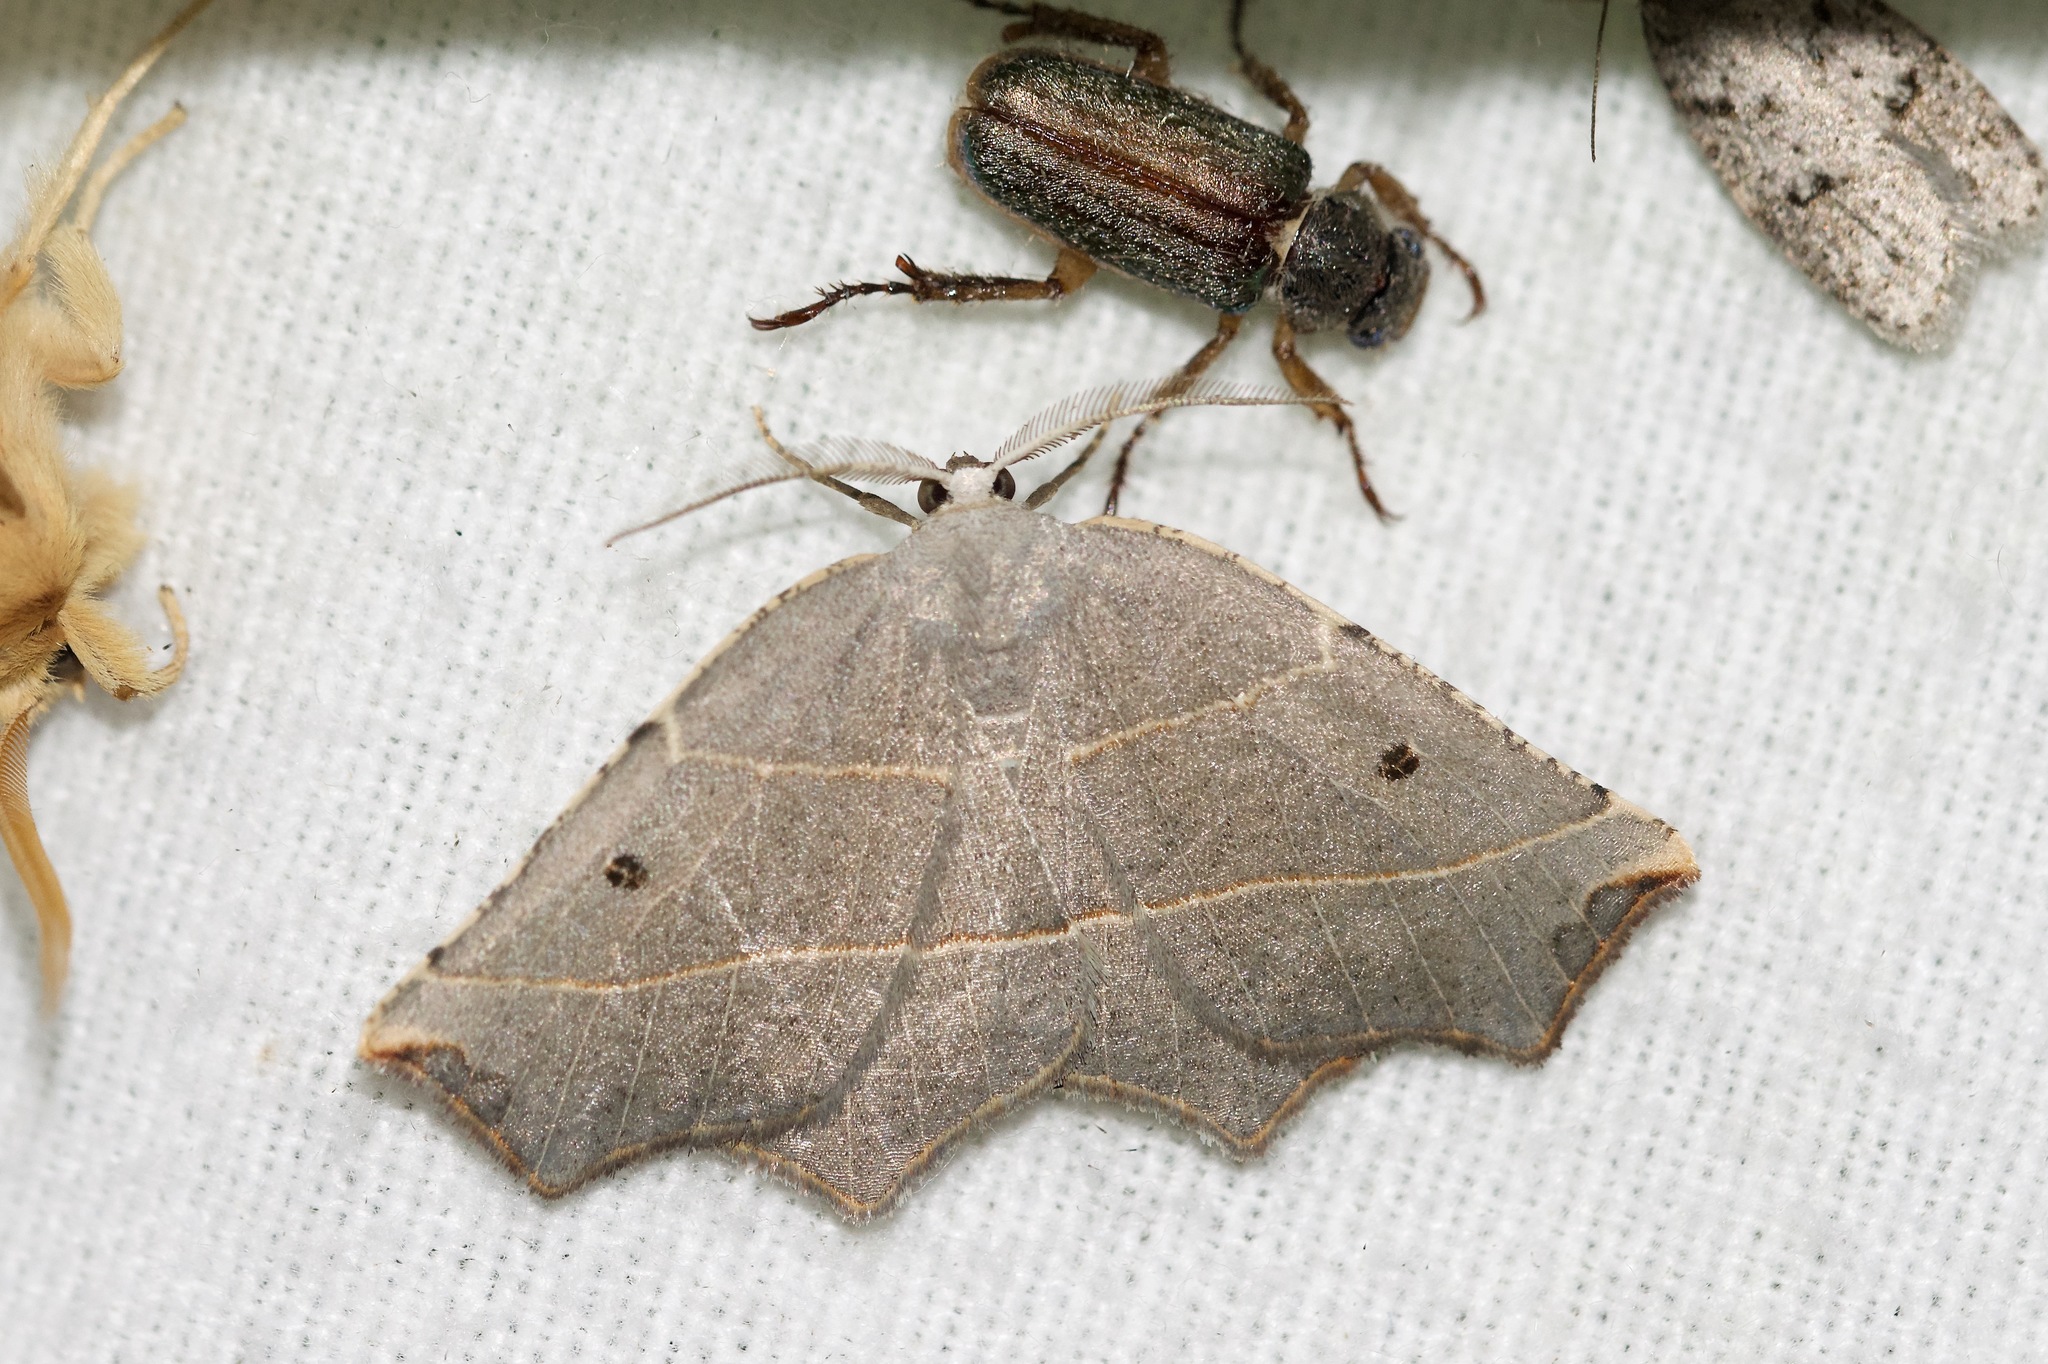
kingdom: Animalia
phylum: Arthropoda
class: Insecta
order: Lepidoptera
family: Geometridae
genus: Metanema
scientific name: Metanema inatomaria
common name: Pale metanema
